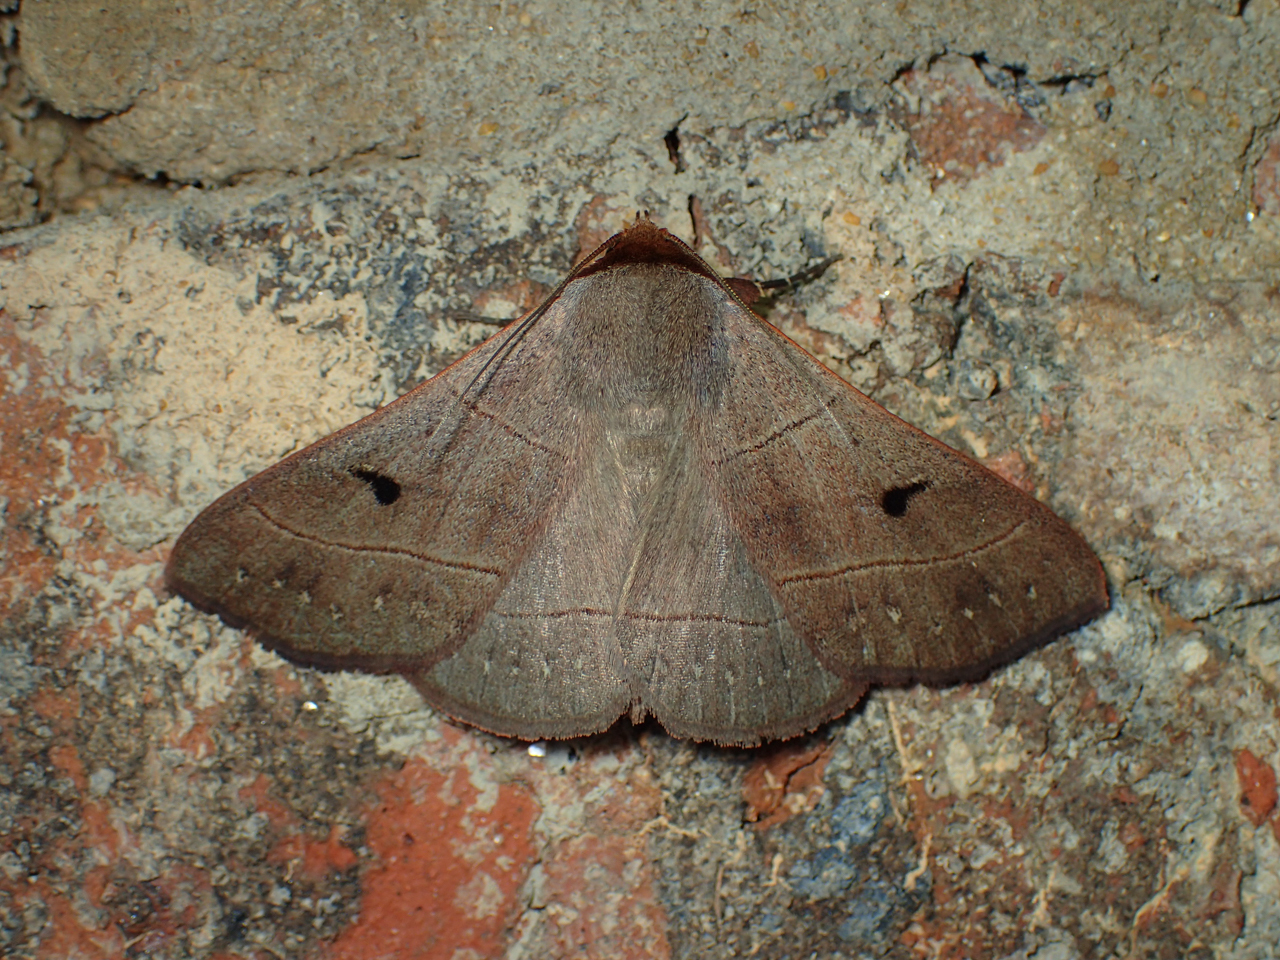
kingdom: Animalia
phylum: Arthropoda
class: Insecta
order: Lepidoptera
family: Erebidae
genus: Panopoda
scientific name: Panopoda rufimargo
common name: Red-lined panopoda moth
